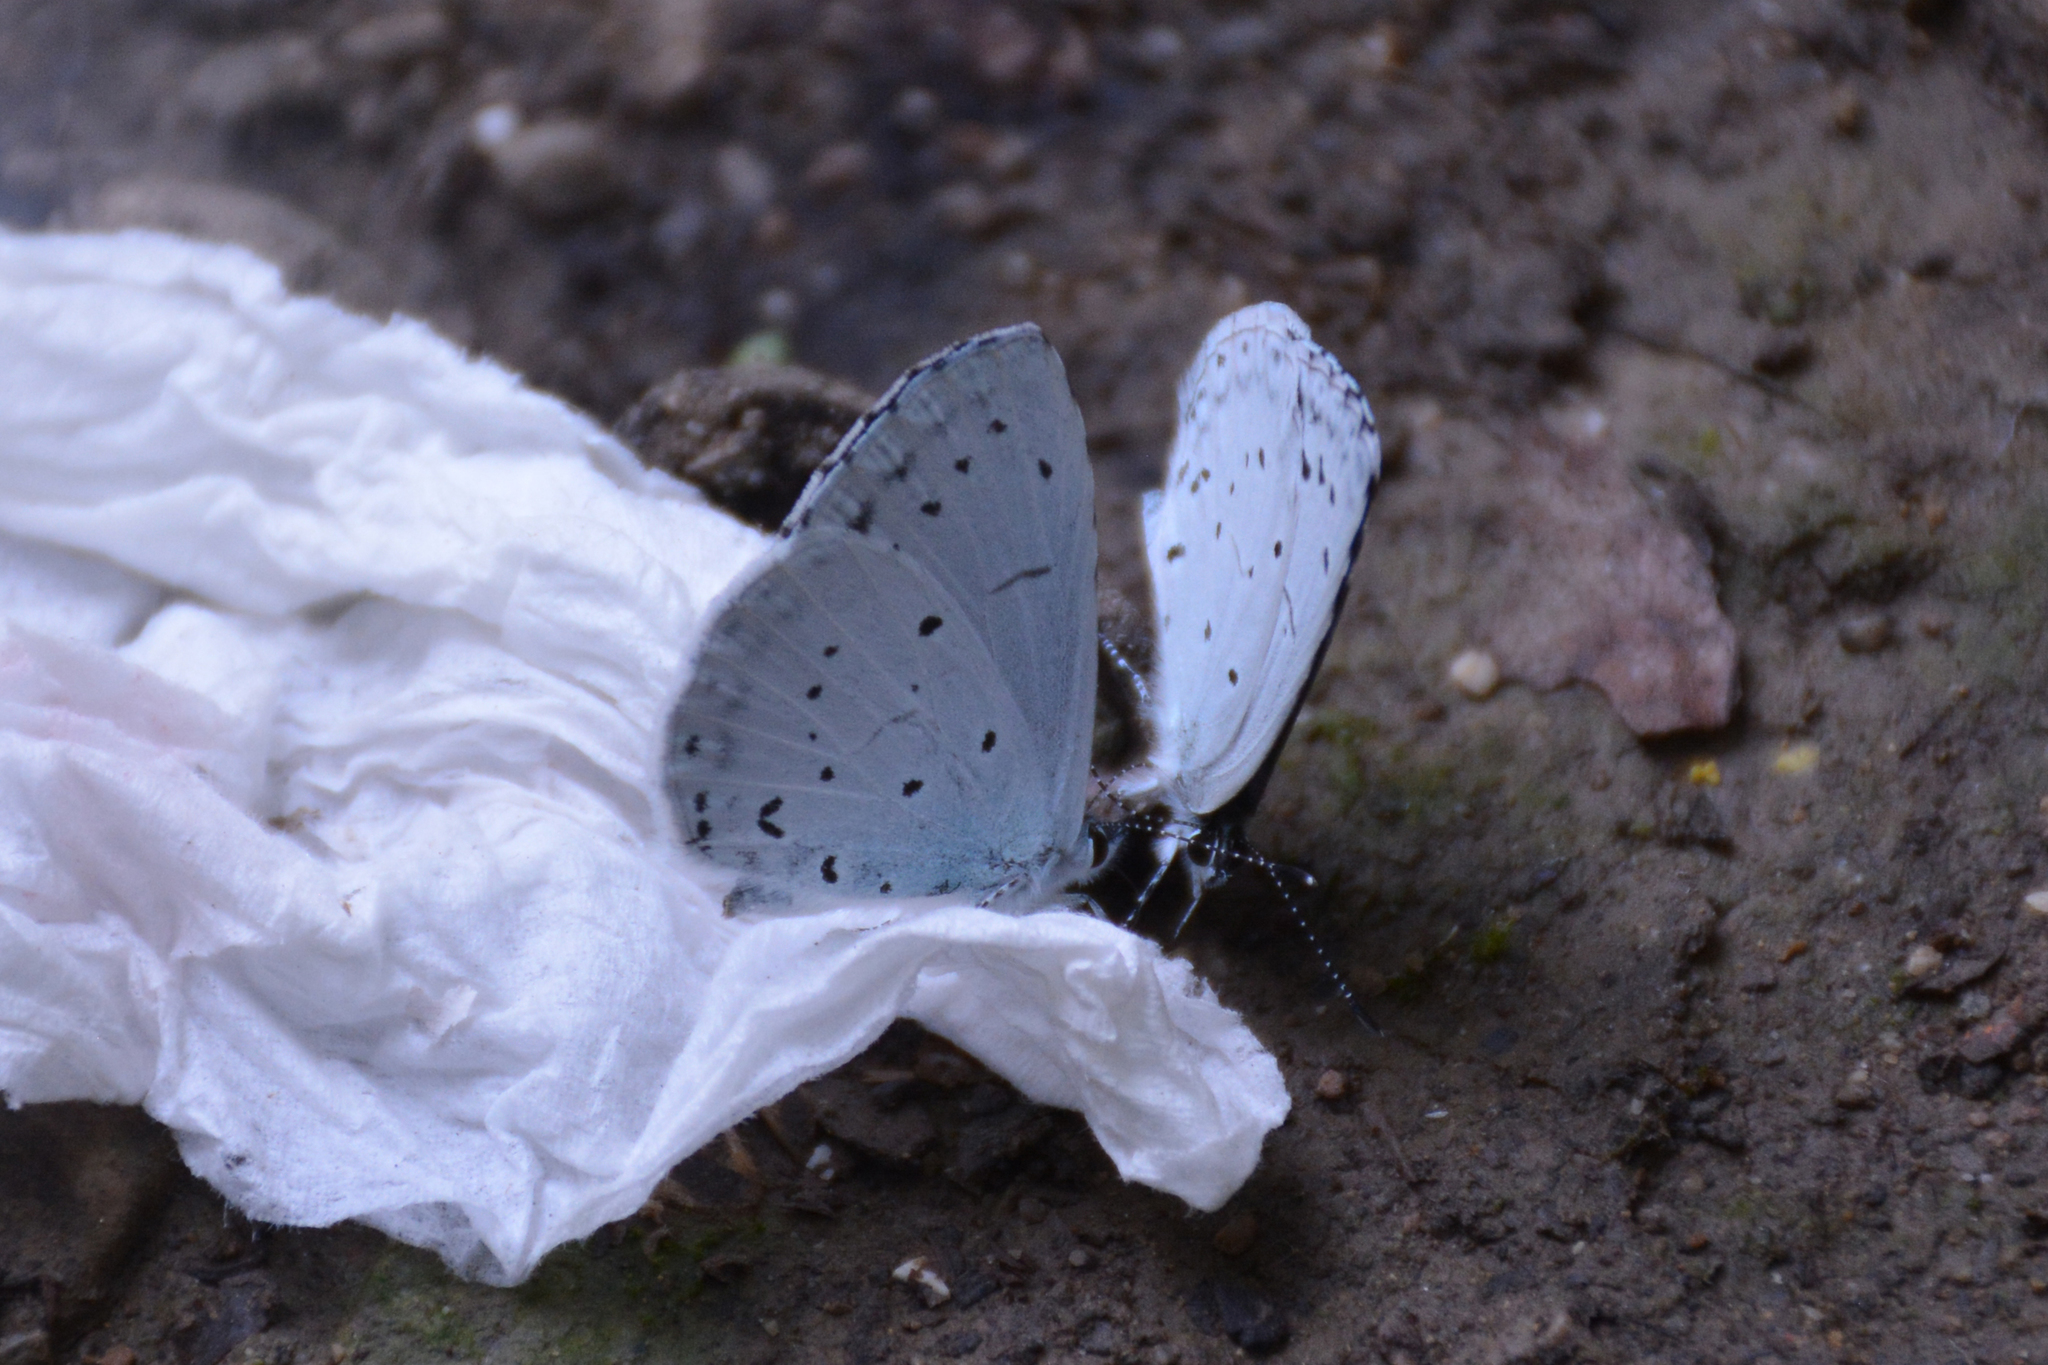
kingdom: Animalia
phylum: Arthropoda
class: Insecta
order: Lepidoptera
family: Lycaenidae
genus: Celastrina
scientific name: Celastrina argiolus
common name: Holly blue
